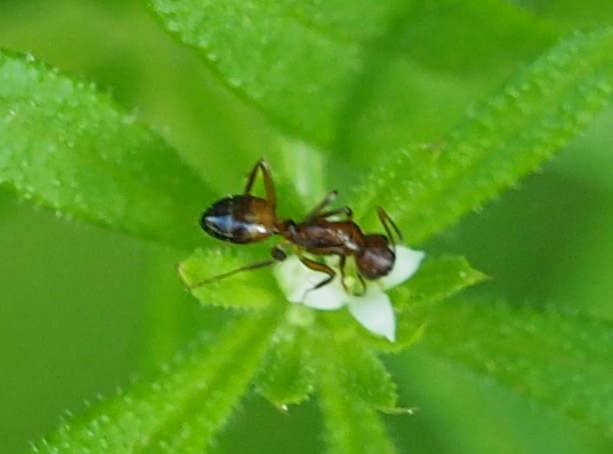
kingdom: Animalia
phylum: Arthropoda
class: Insecta
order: Hymenoptera
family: Formicidae
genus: Camponotus
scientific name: Camponotus subbarbatus
